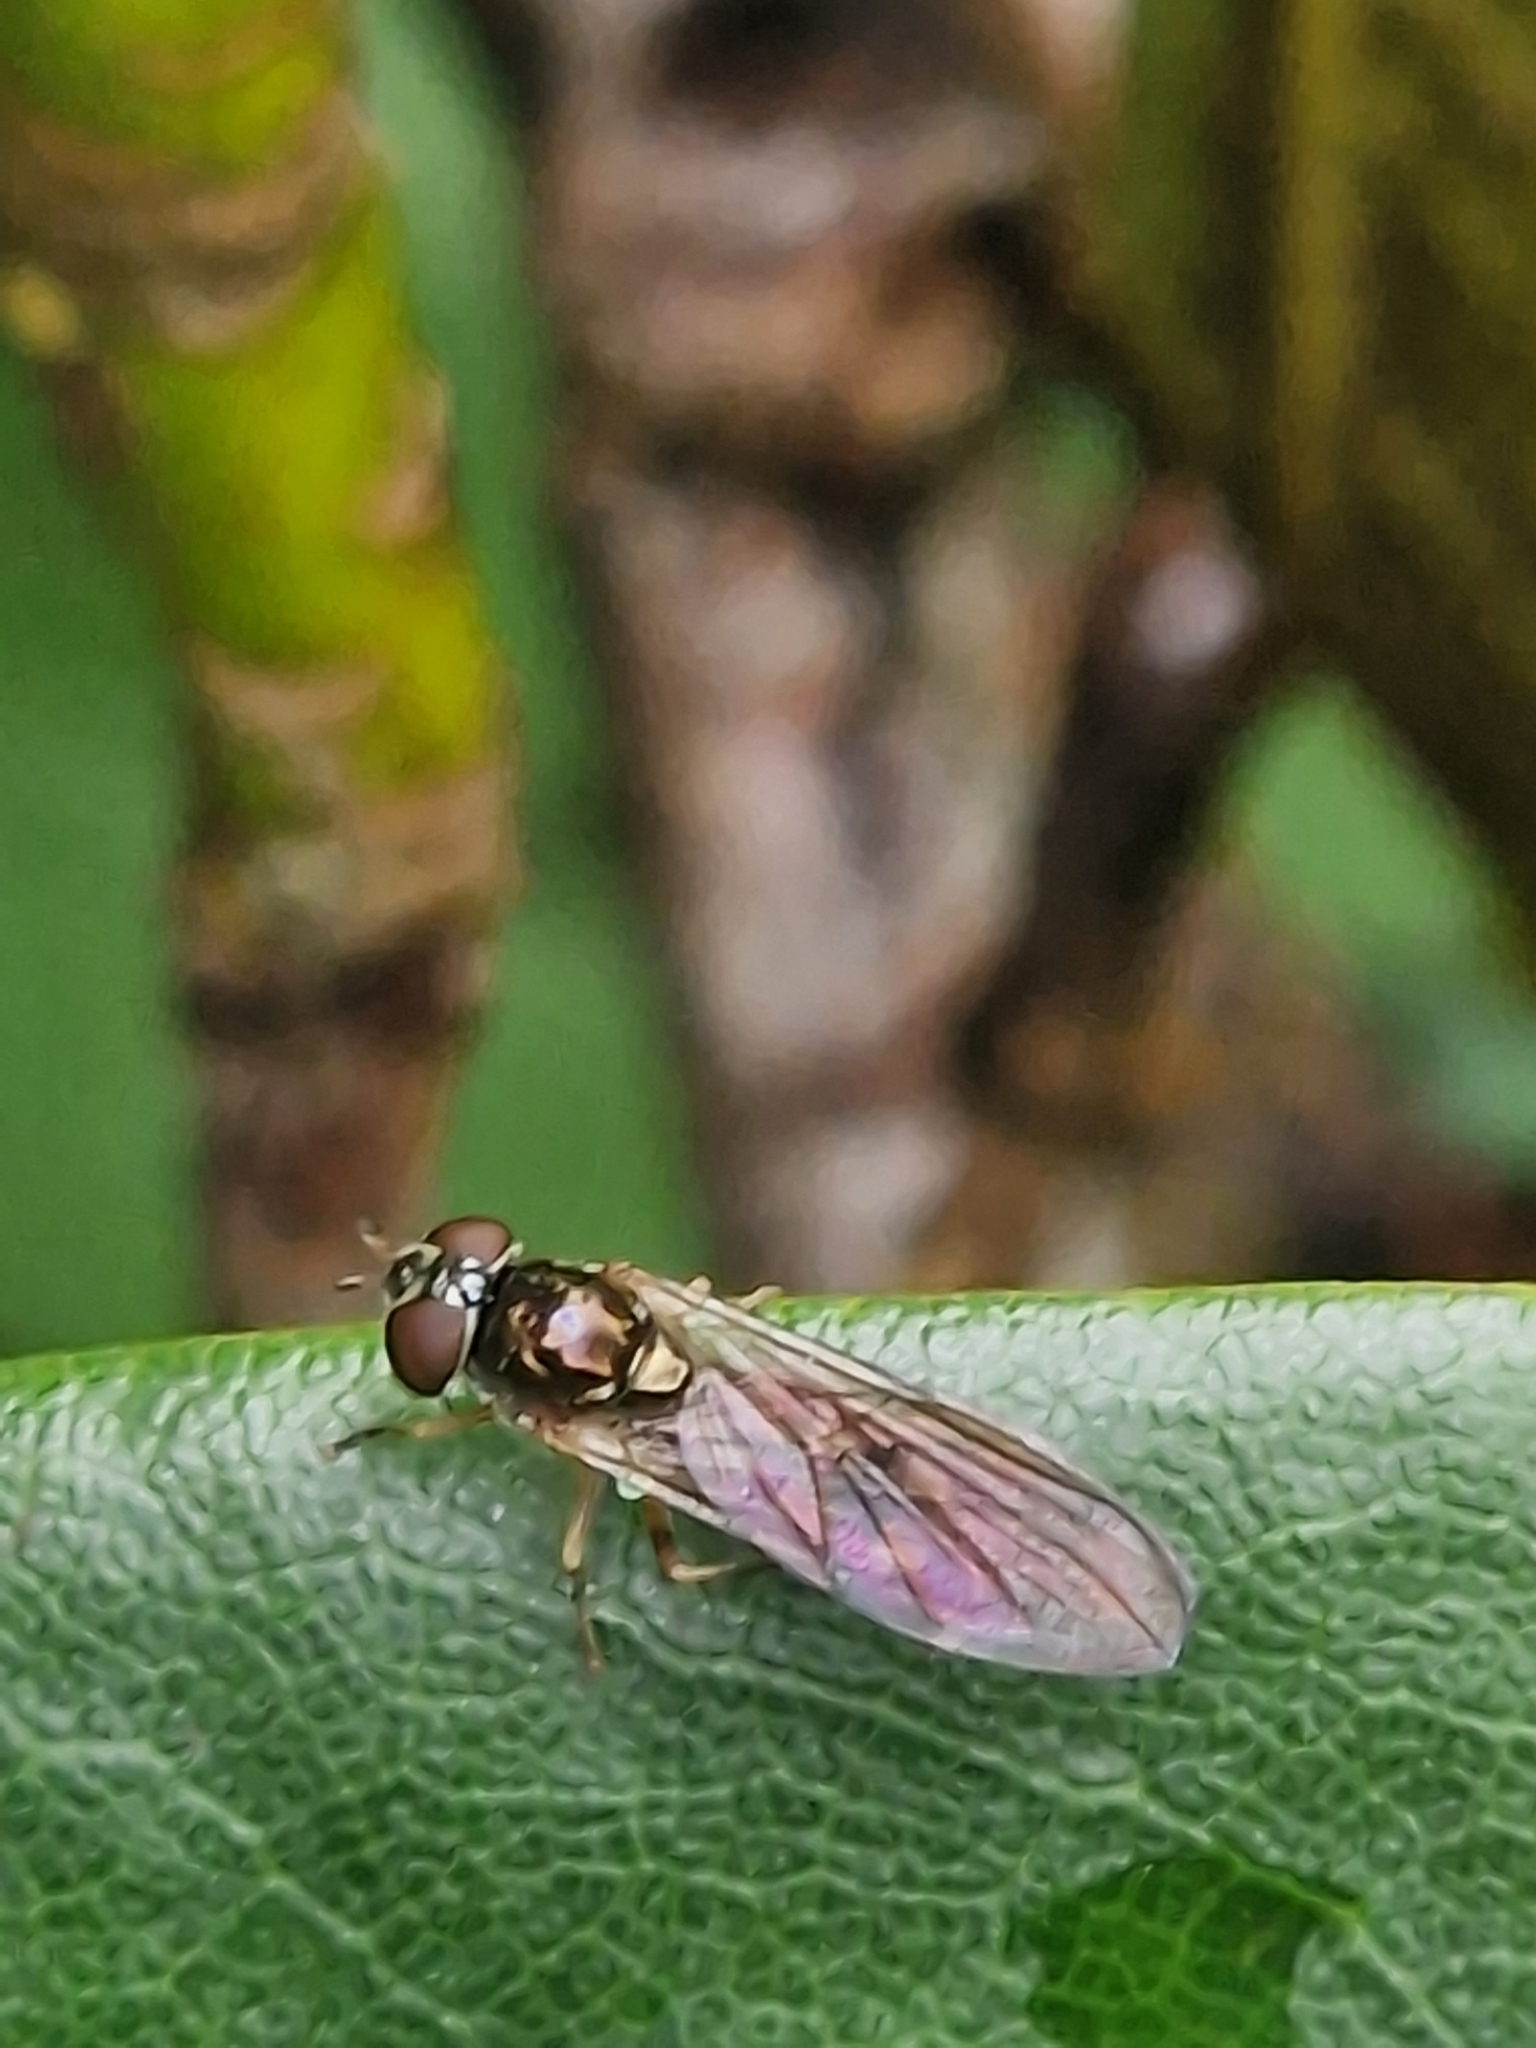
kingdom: Animalia
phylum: Arthropoda
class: Insecta
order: Diptera
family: Syrphidae
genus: Melanostoma
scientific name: Melanostoma scalare
